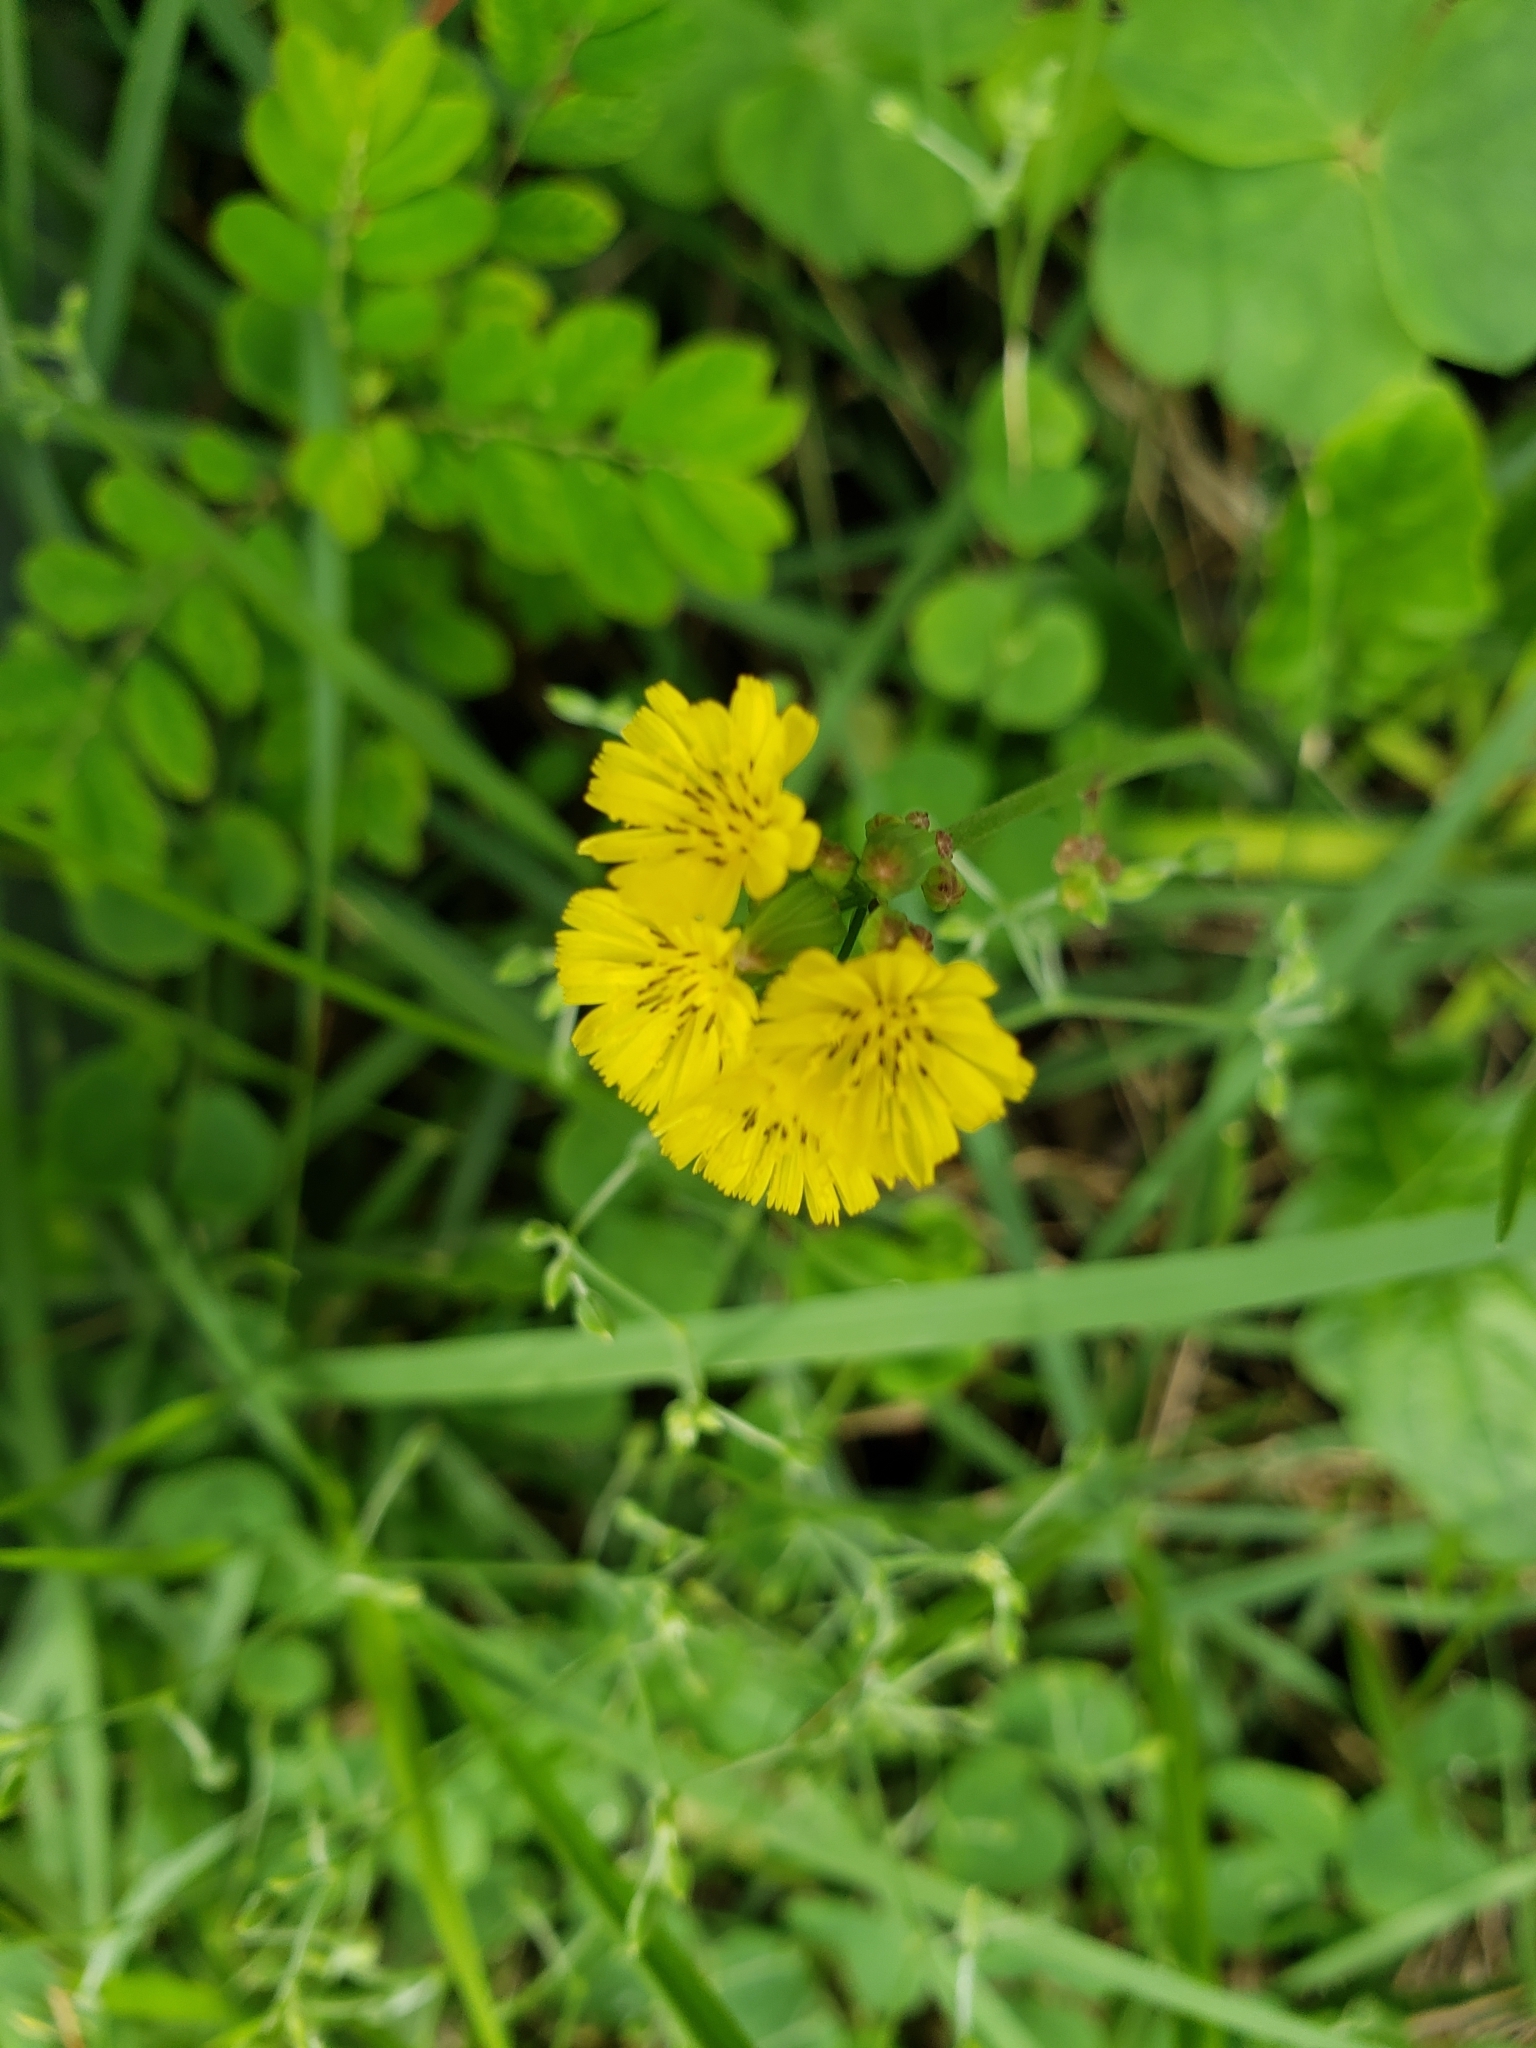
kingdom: Plantae
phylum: Tracheophyta
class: Magnoliopsida
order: Asterales
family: Asteraceae
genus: Youngia
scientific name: Youngia japonica
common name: Oriental false hawksbeard
